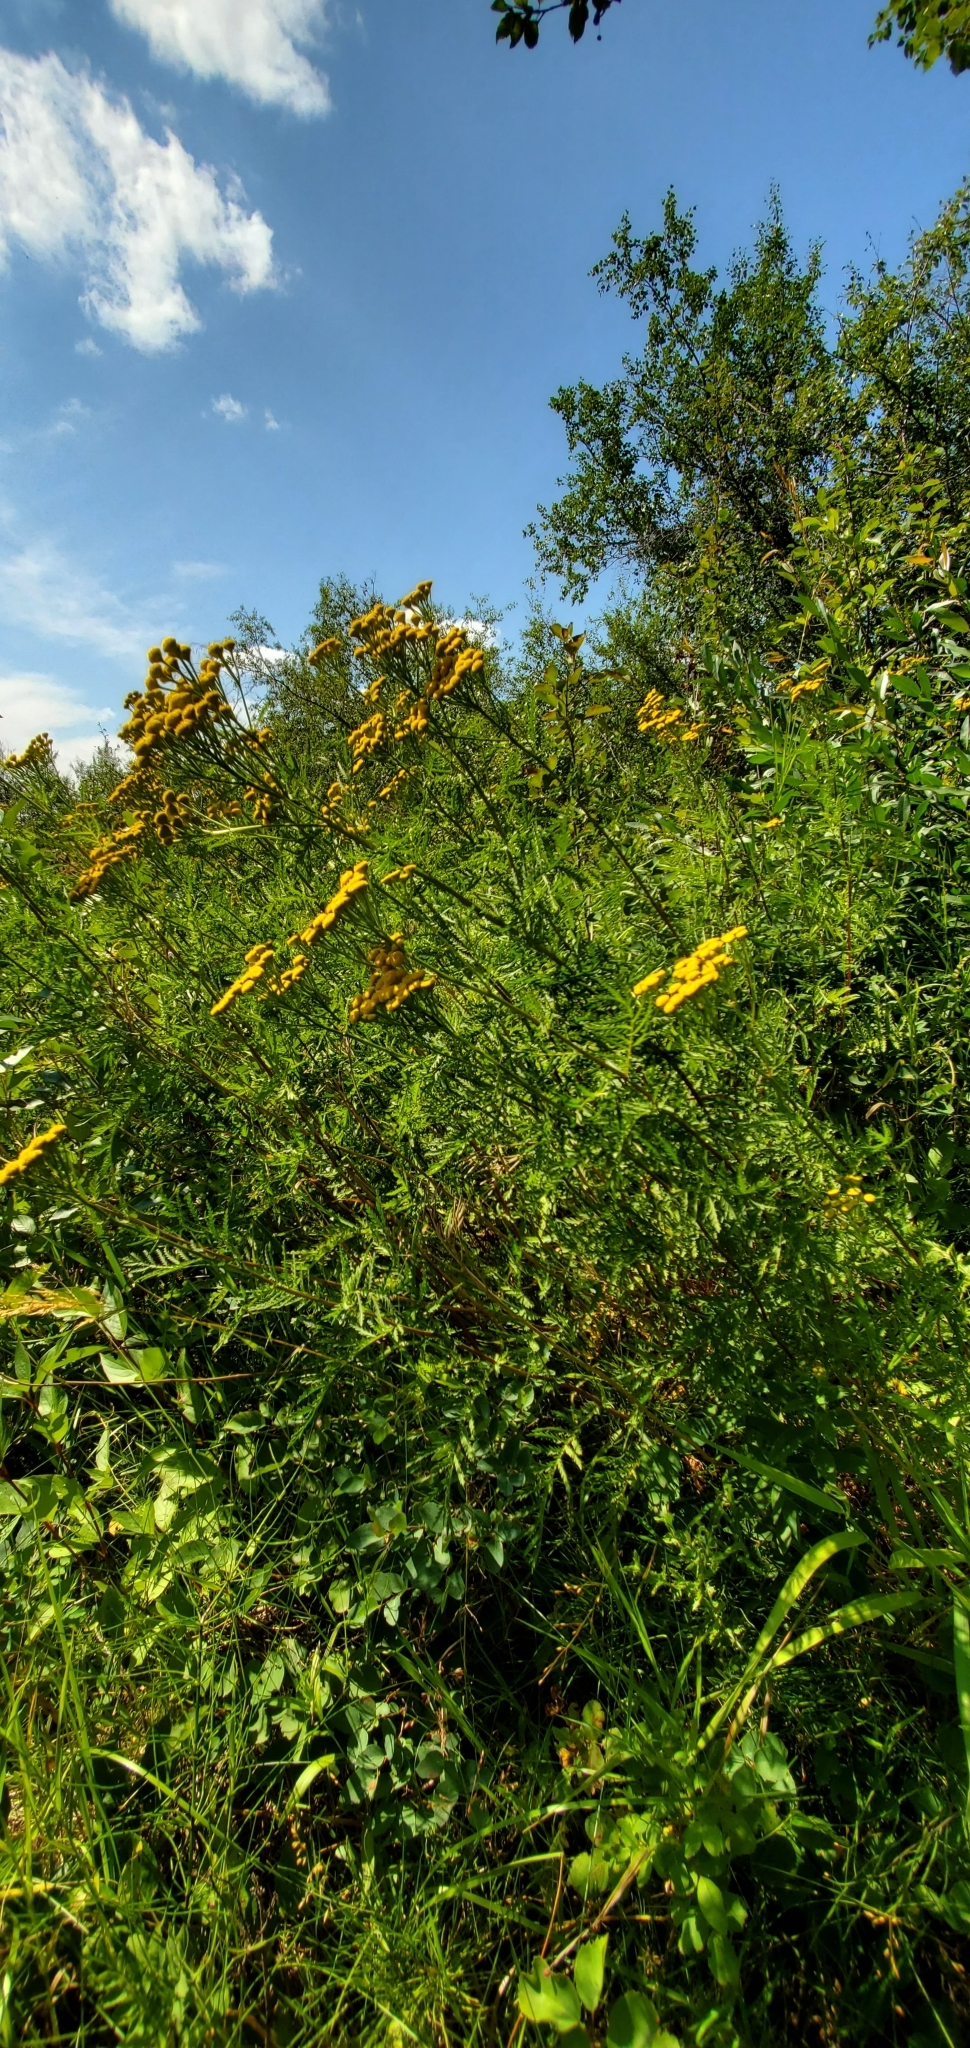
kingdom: Plantae
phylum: Tracheophyta
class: Magnoliopsida
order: Asterales
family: Asteraceae
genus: Tanacetum
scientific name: Tanacetum vulgare
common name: Common tansy
